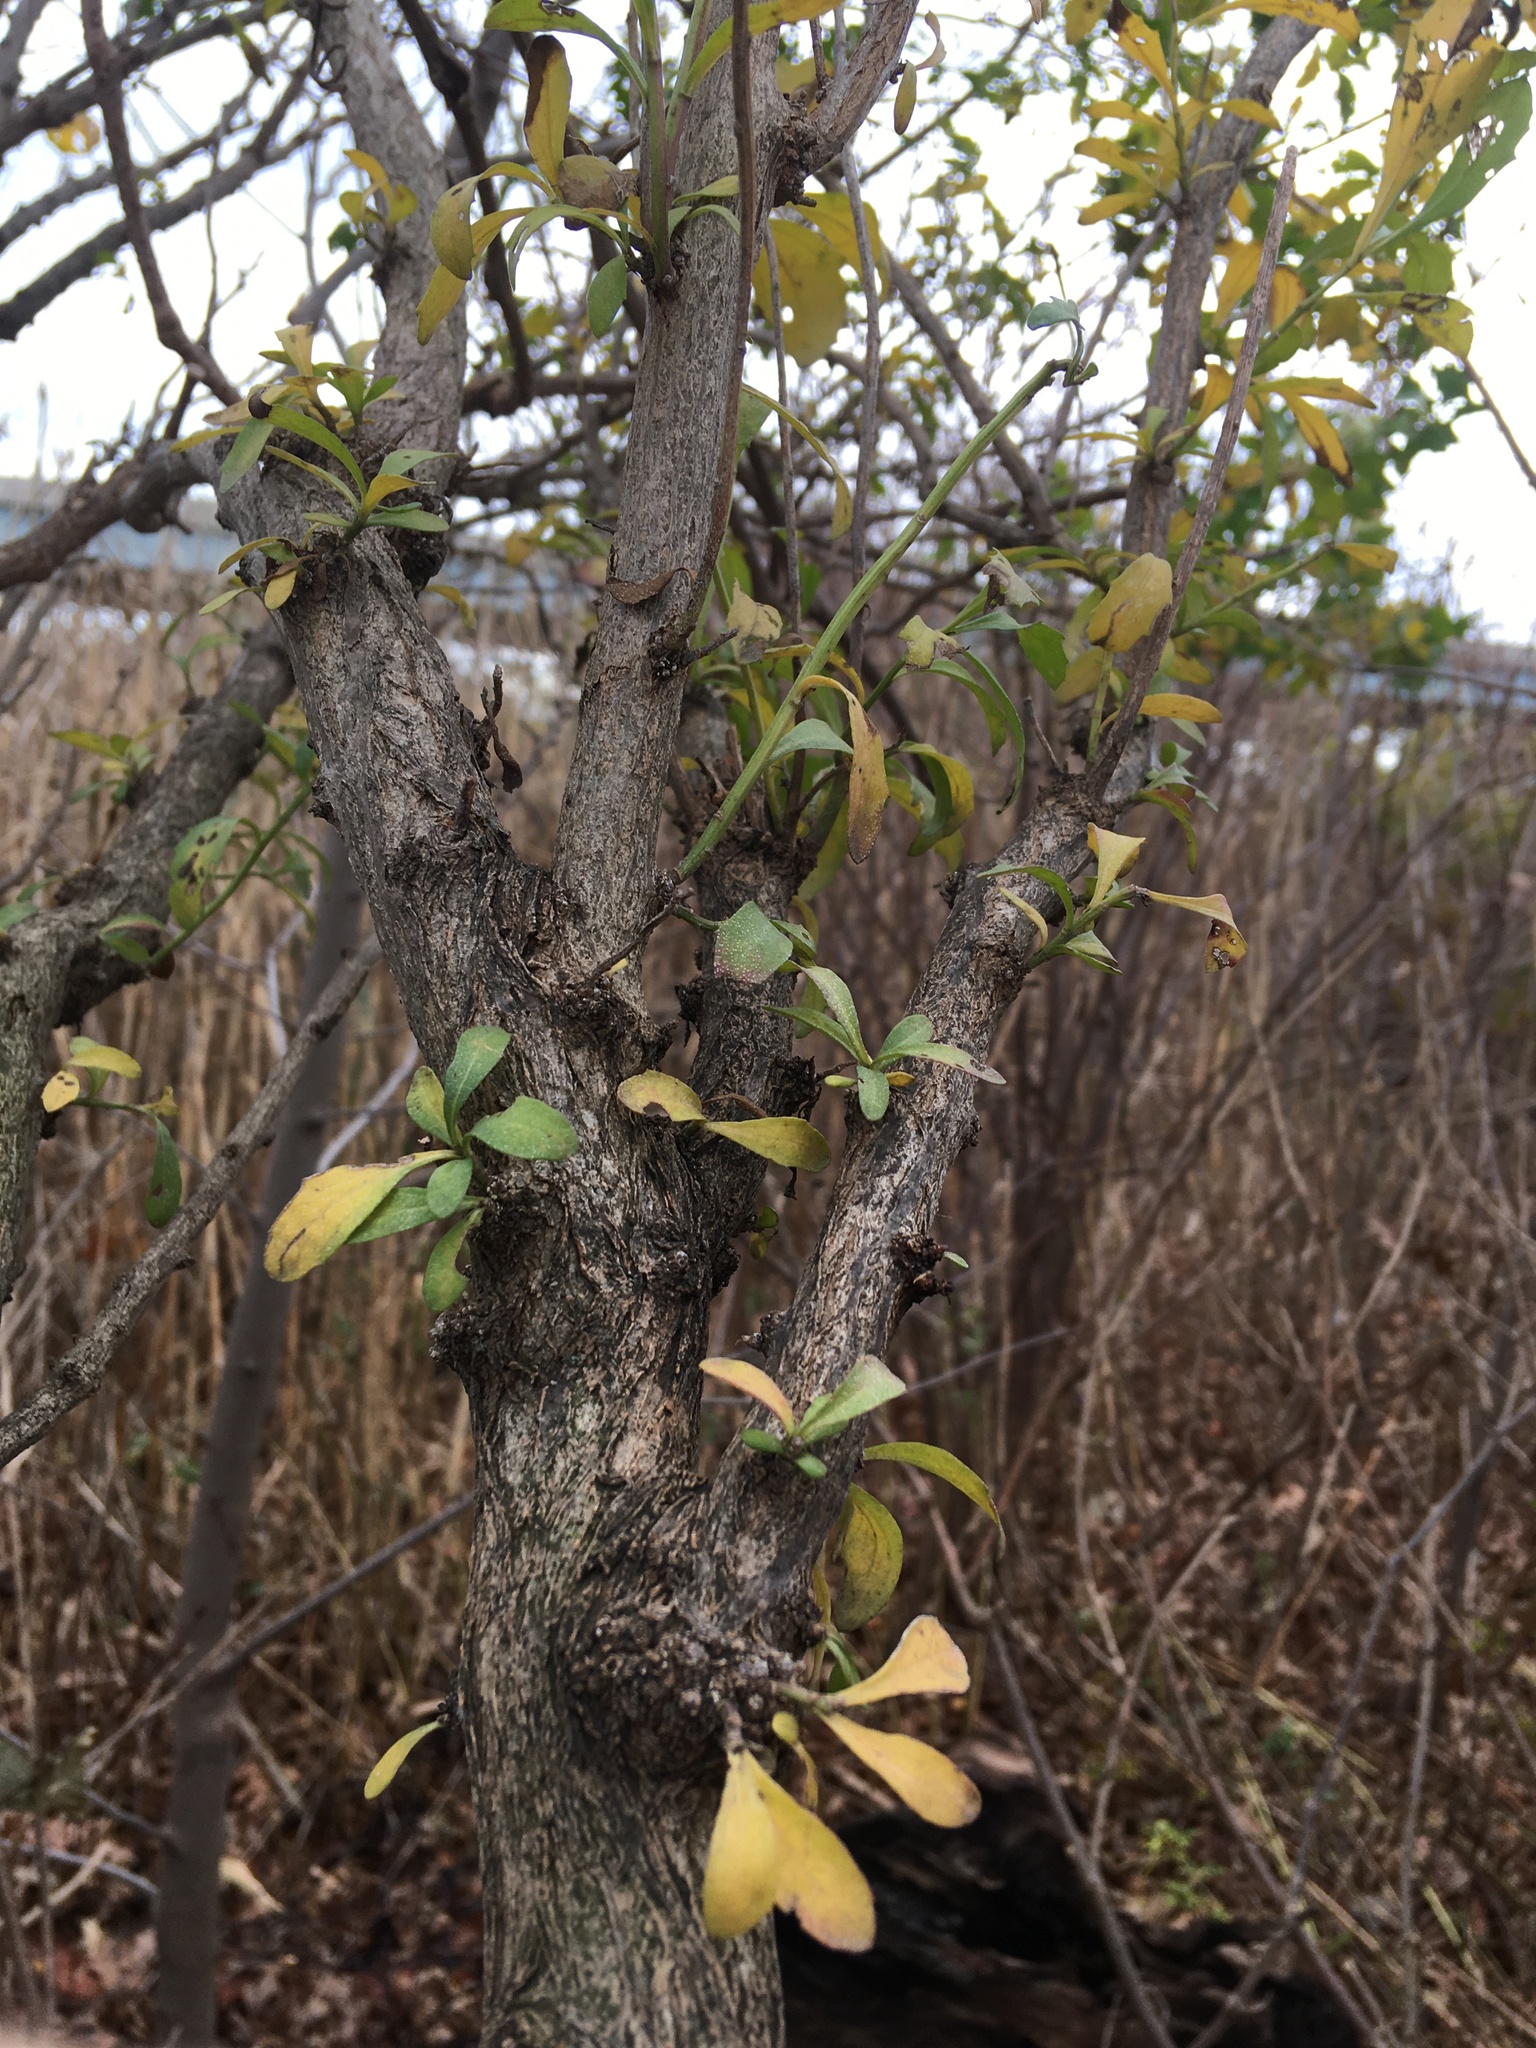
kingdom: Plantae
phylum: Tracheophyta
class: Magnoliopsida
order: Asterales
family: Asteraceae
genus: Baccharis
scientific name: Baccharis halimifolia
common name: Eastern baccharis
